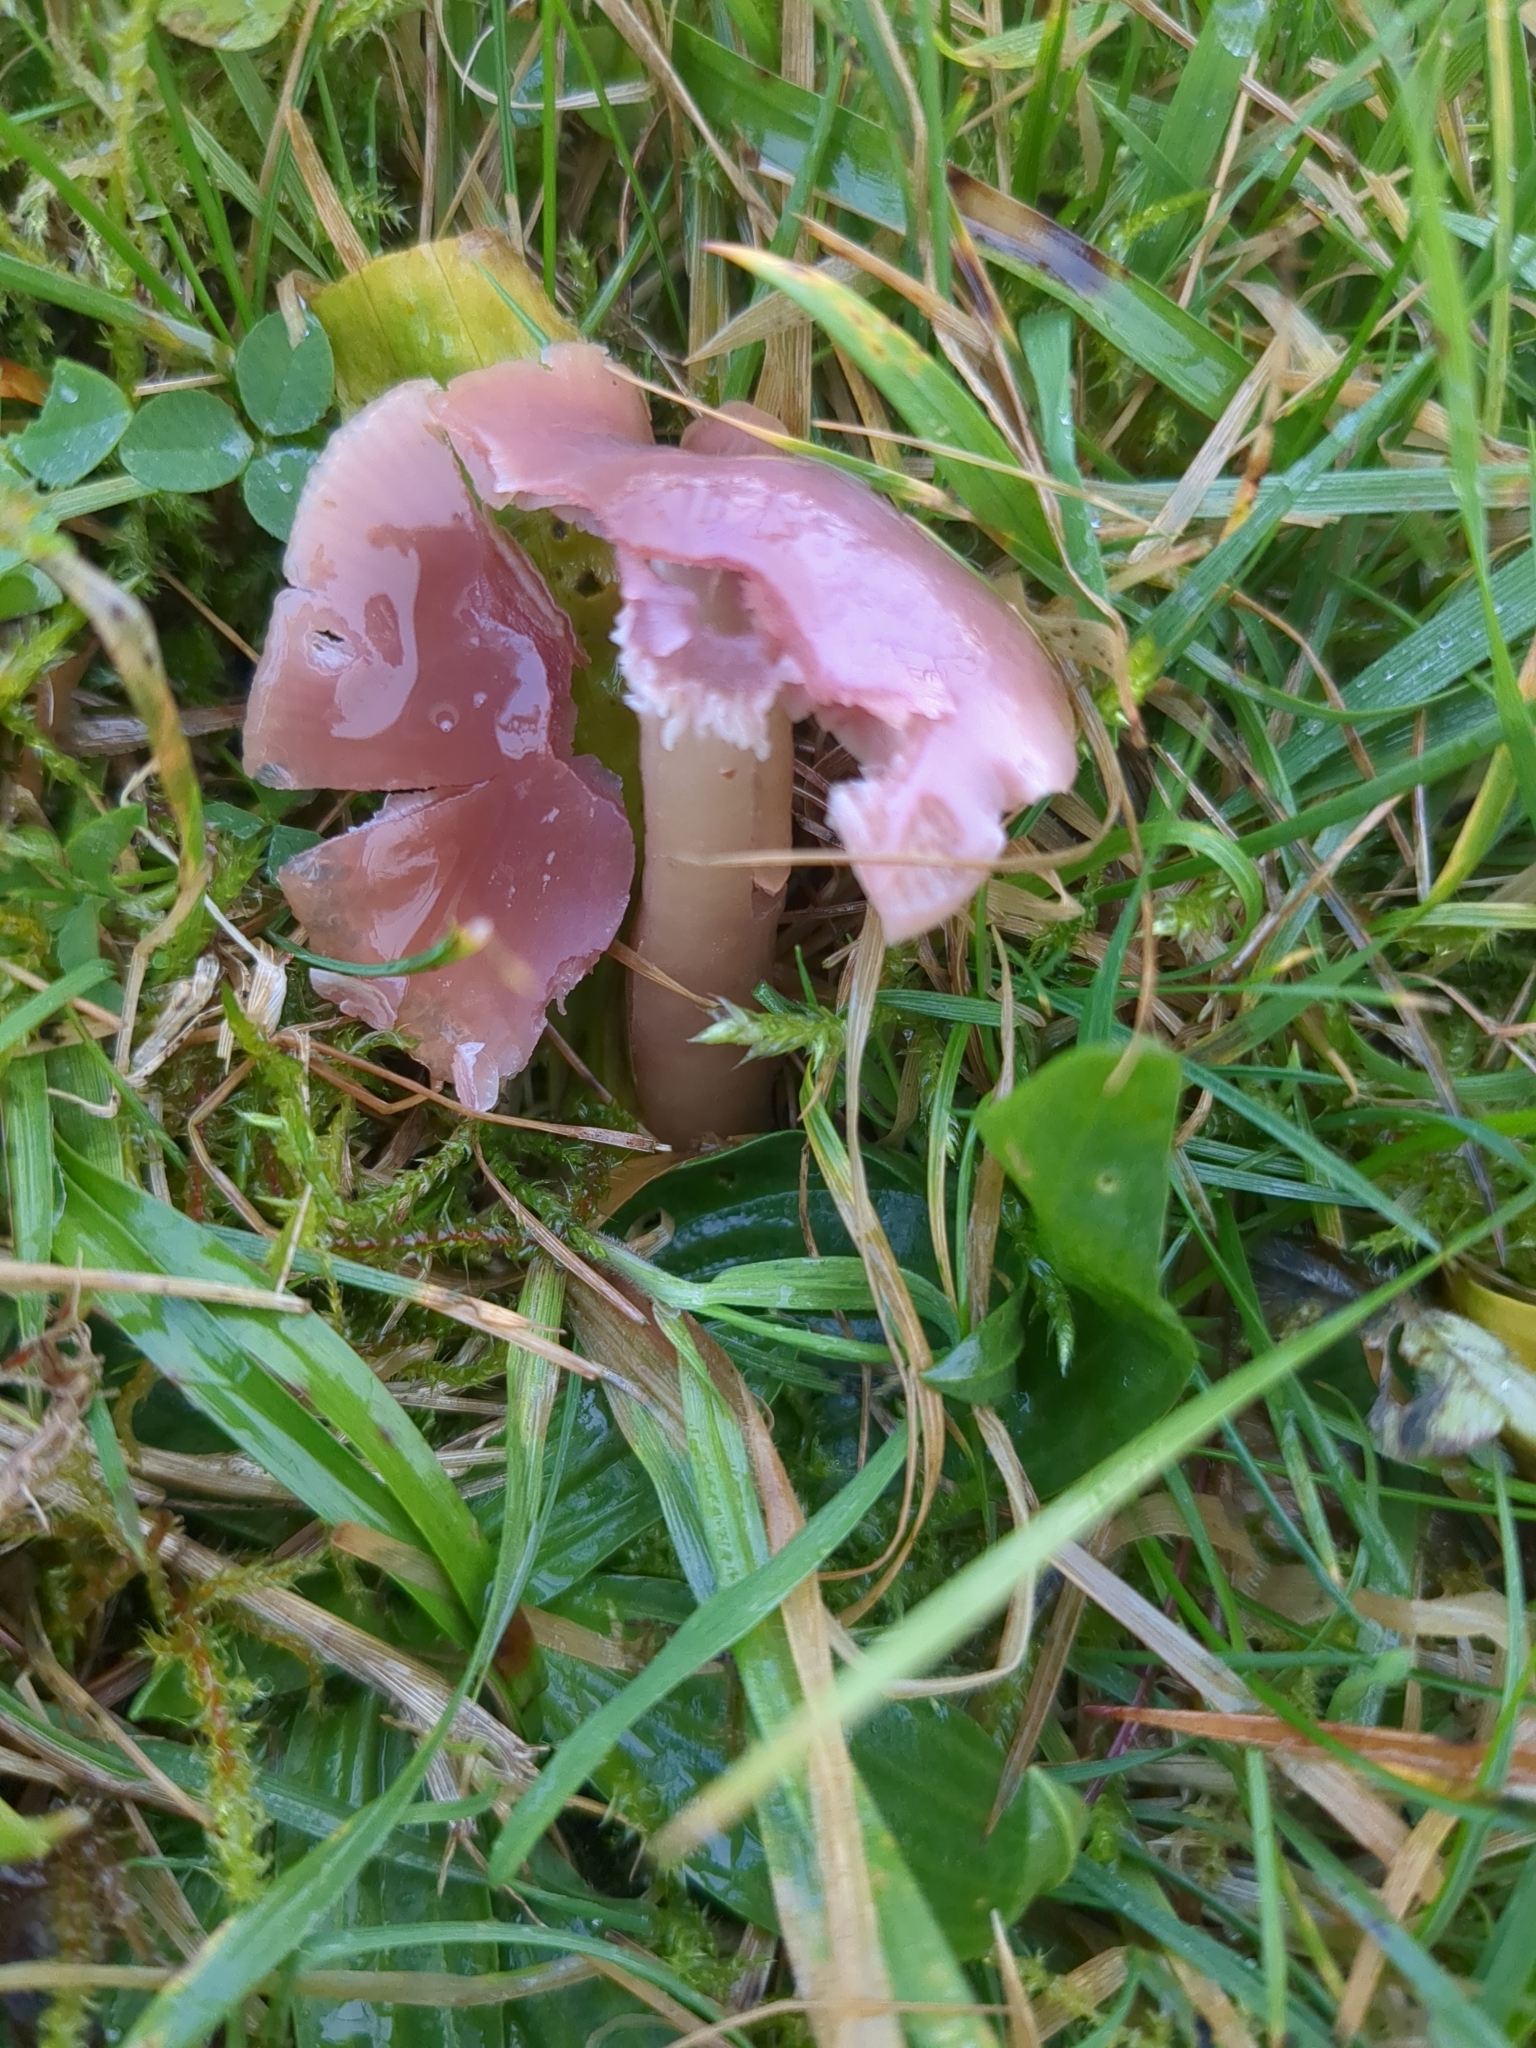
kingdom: Fungi
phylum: Basidiomycota
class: Agaricomycetes
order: Agaricales
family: Hygrophoraceae
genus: Gliophorus
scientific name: Gliophorus reginae
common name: Jubilee waxcap
